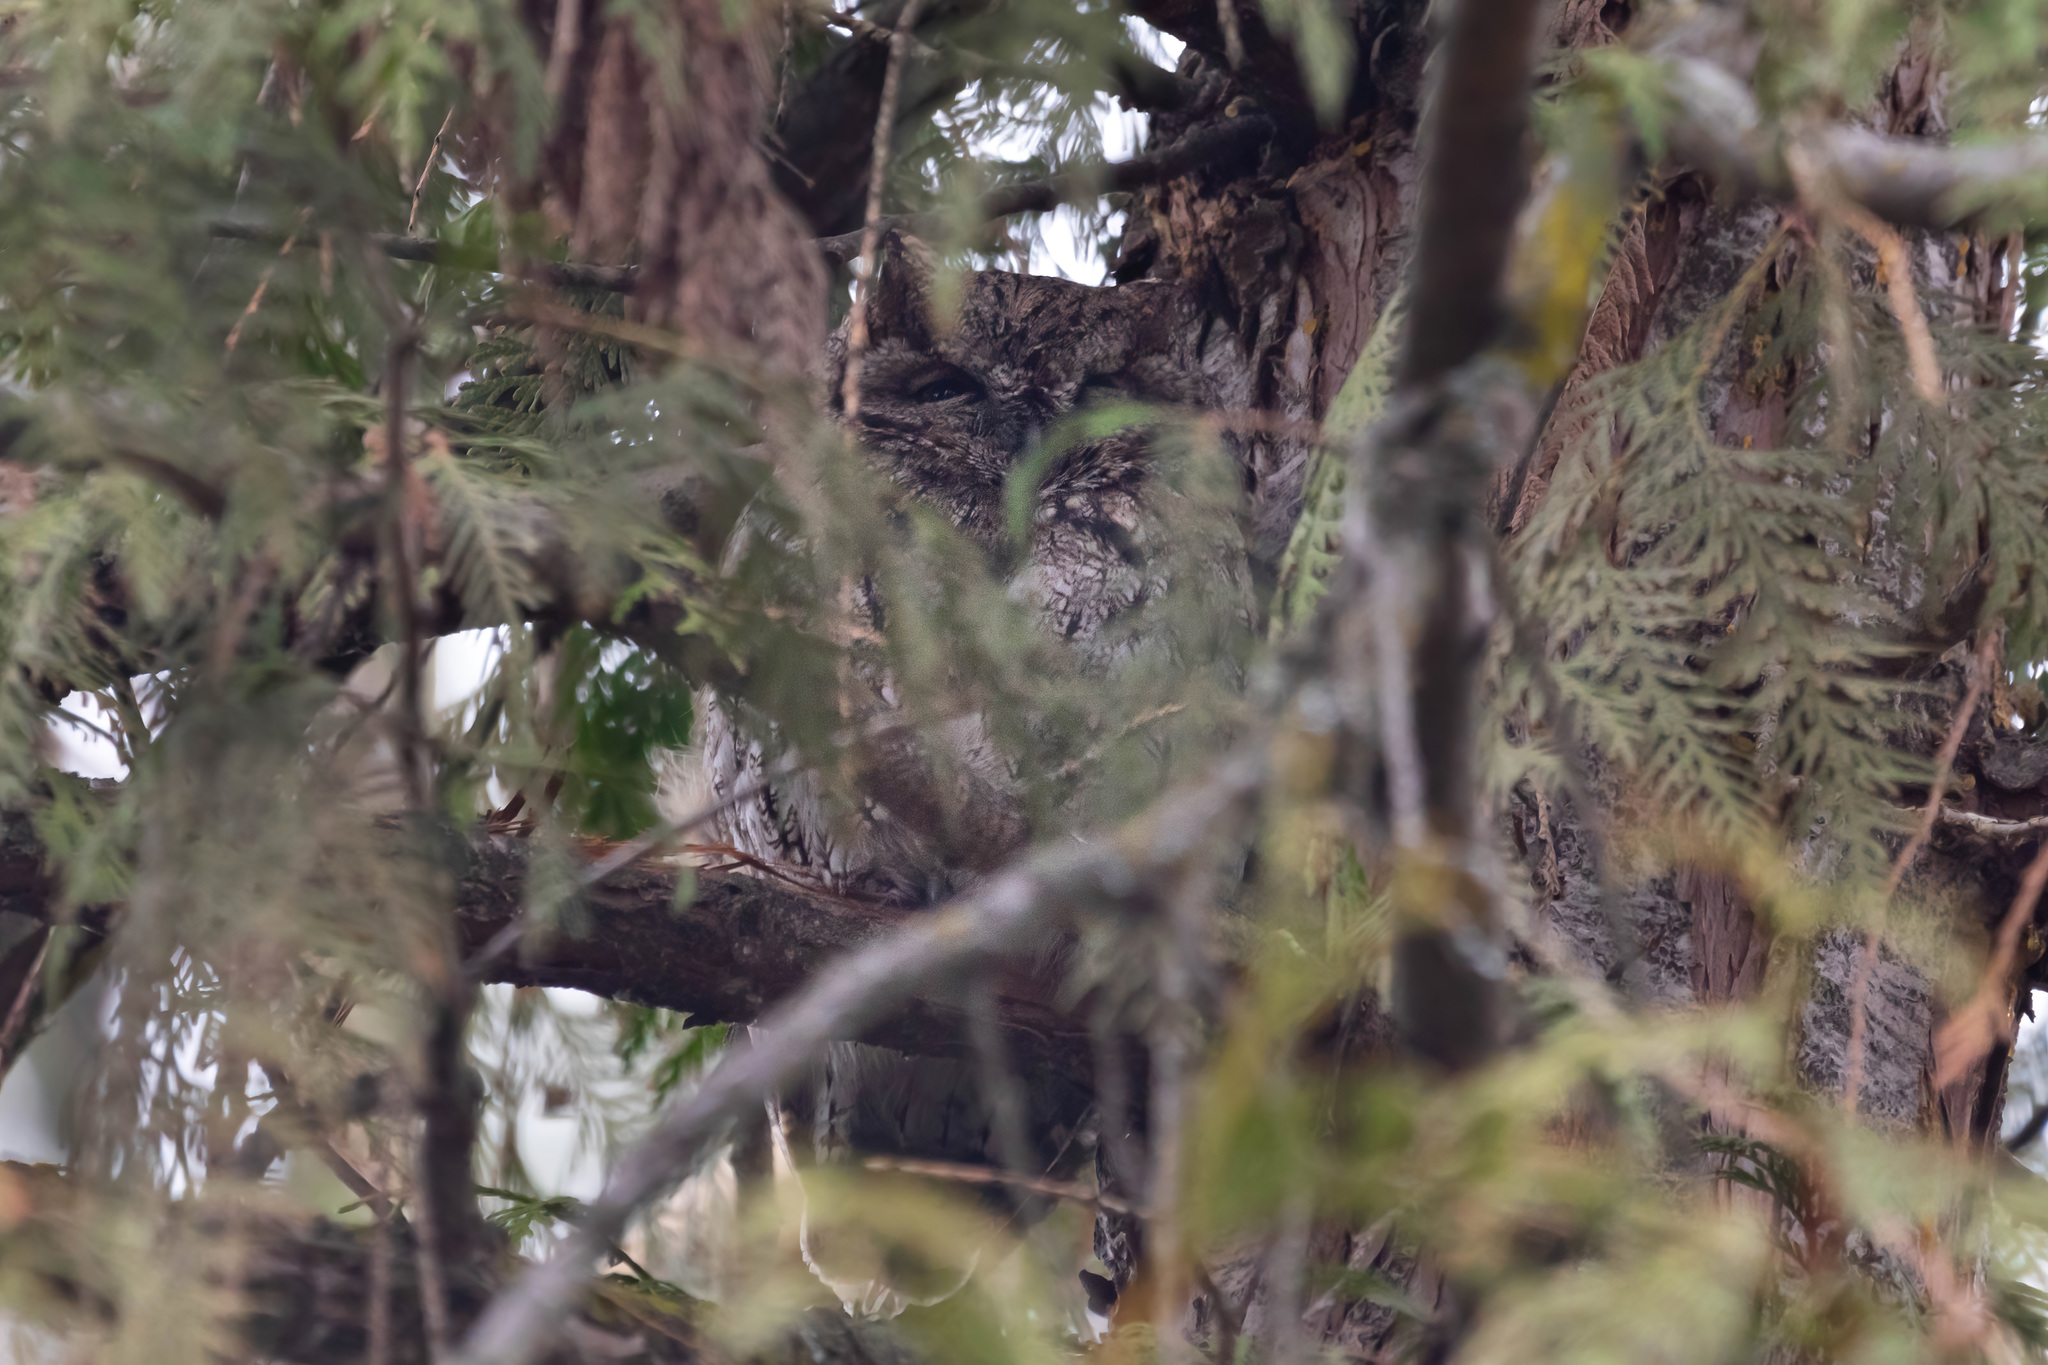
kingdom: Animalia
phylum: Chordata
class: Aves
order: Strigiformes
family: Strigidae
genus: Megascops
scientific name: Megascops kennicottii
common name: Western screech-owl
